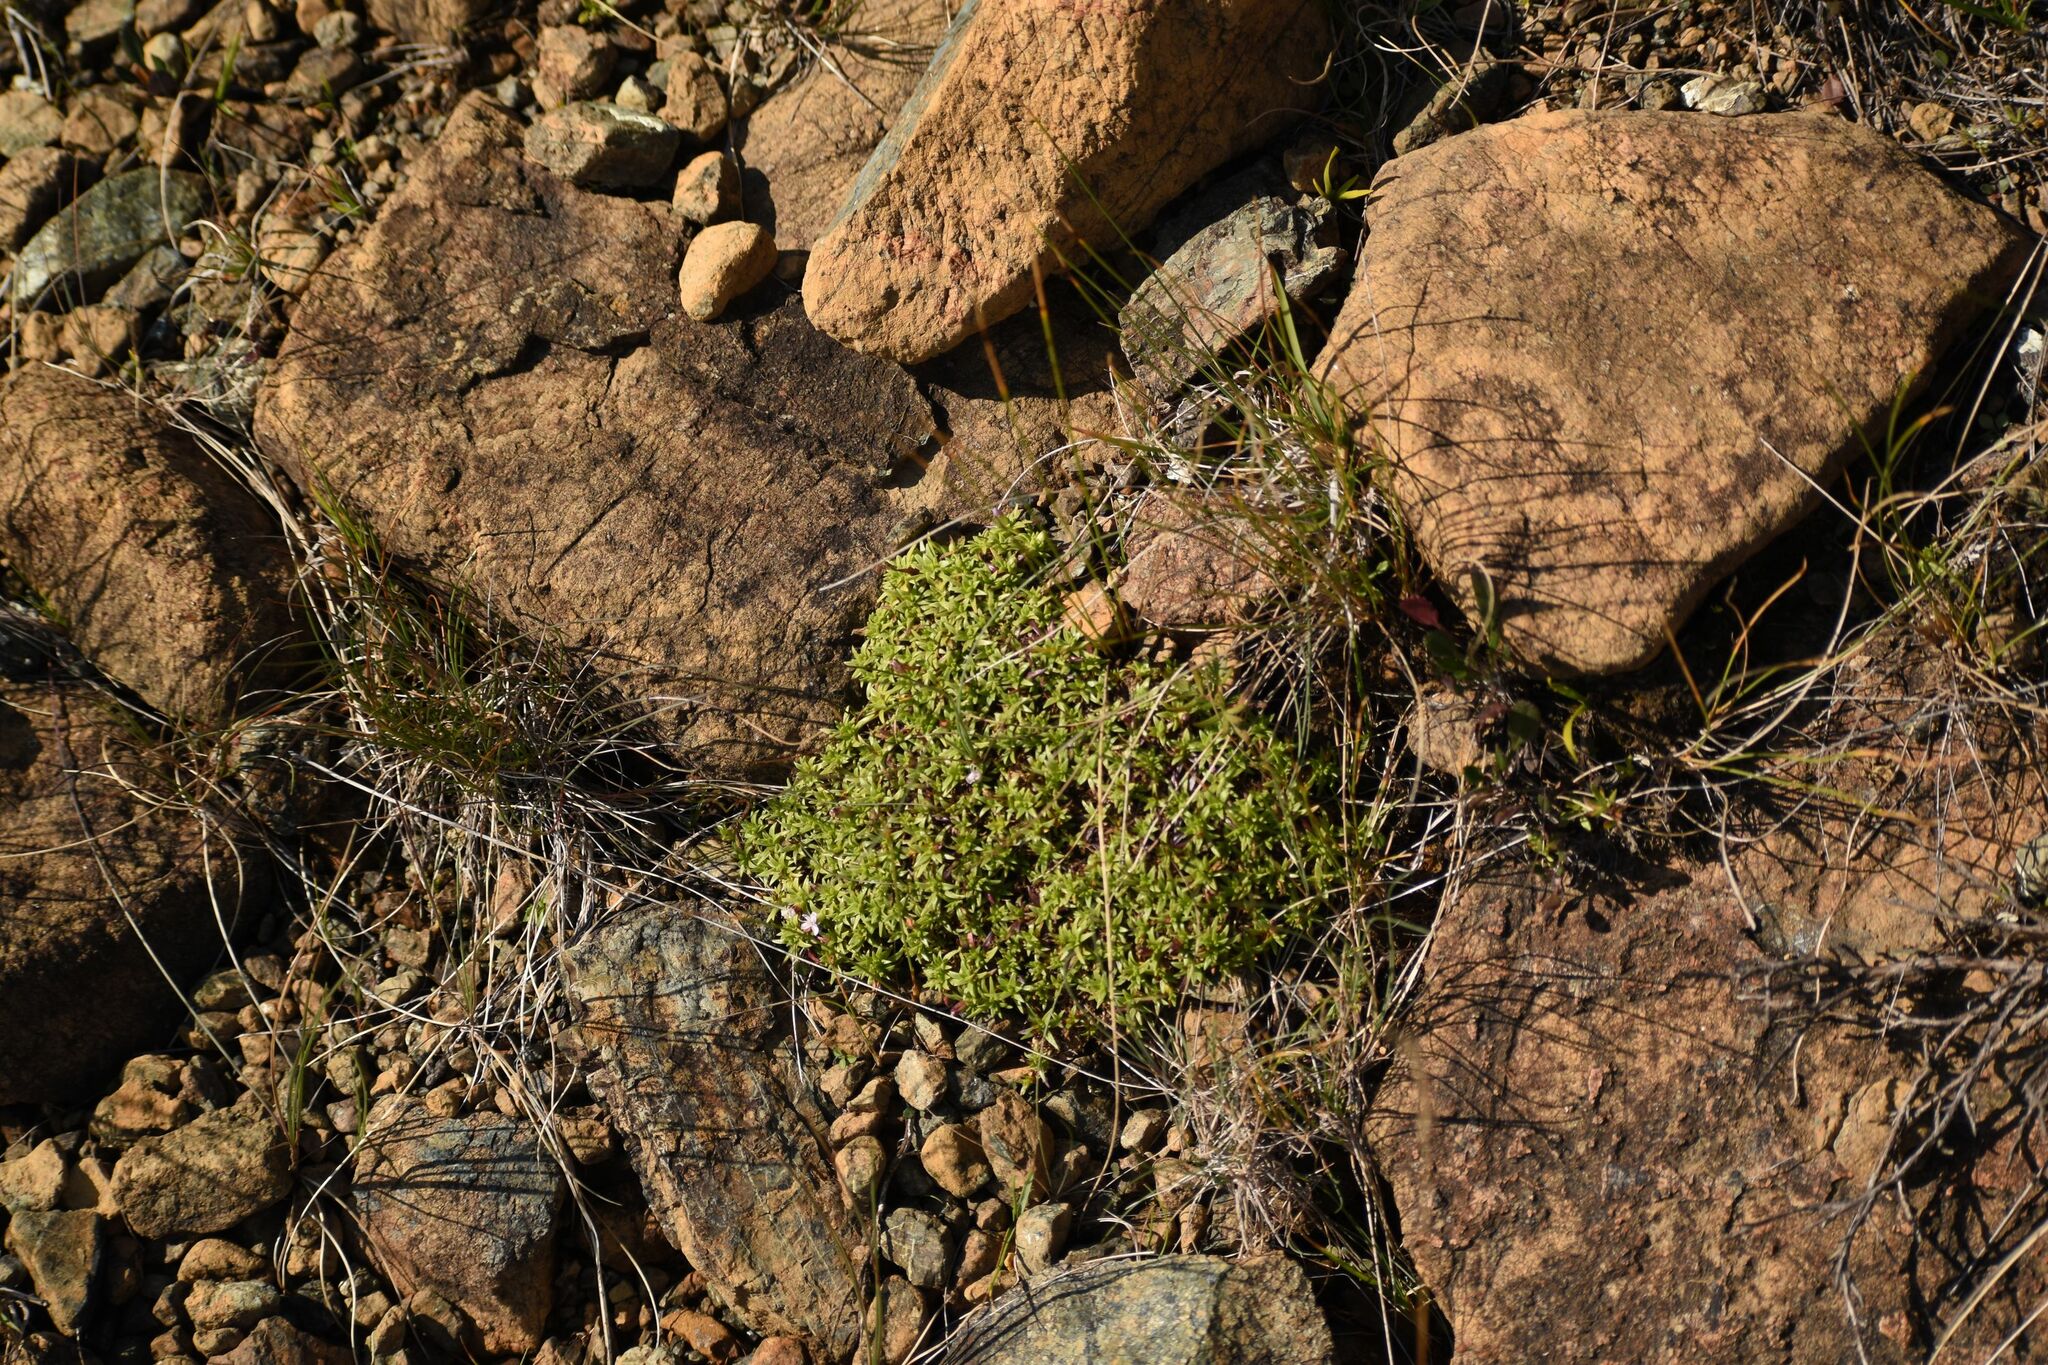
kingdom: Plantae
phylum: Tracheophyta
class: Magnoliopsida
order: Caryophyllales
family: Caryophyllaceae
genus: Silene
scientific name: Silene acaulis
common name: Moss campion
